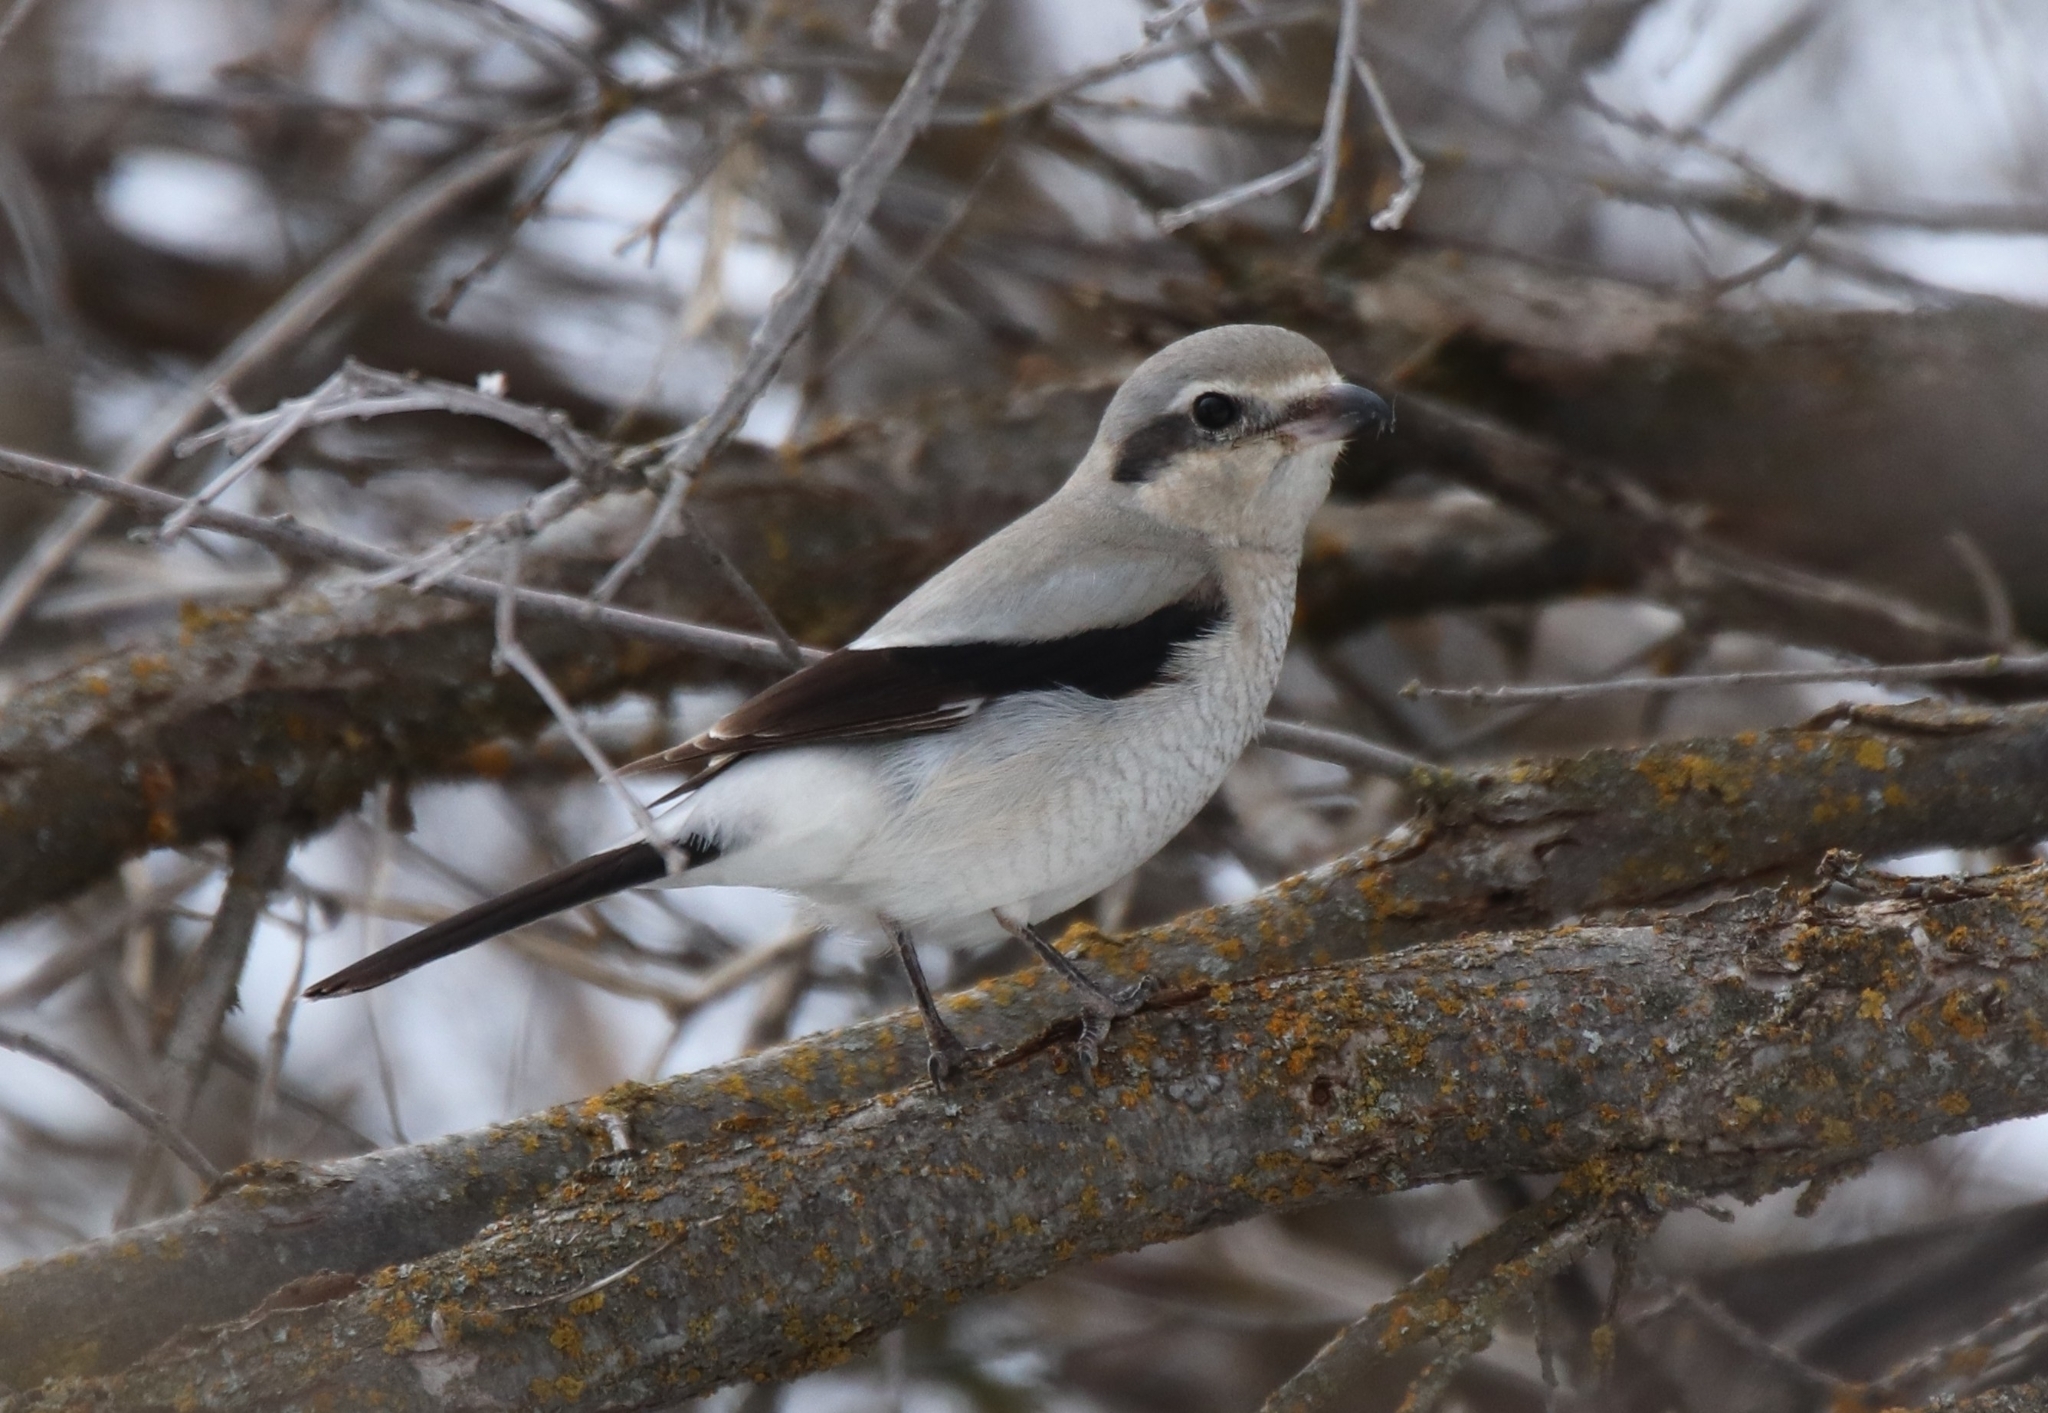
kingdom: Animalia
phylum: Chordata
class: Aves
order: Passeriformes
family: Laniidae
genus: Lanius
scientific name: Lanius borealis
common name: Northern shrike
